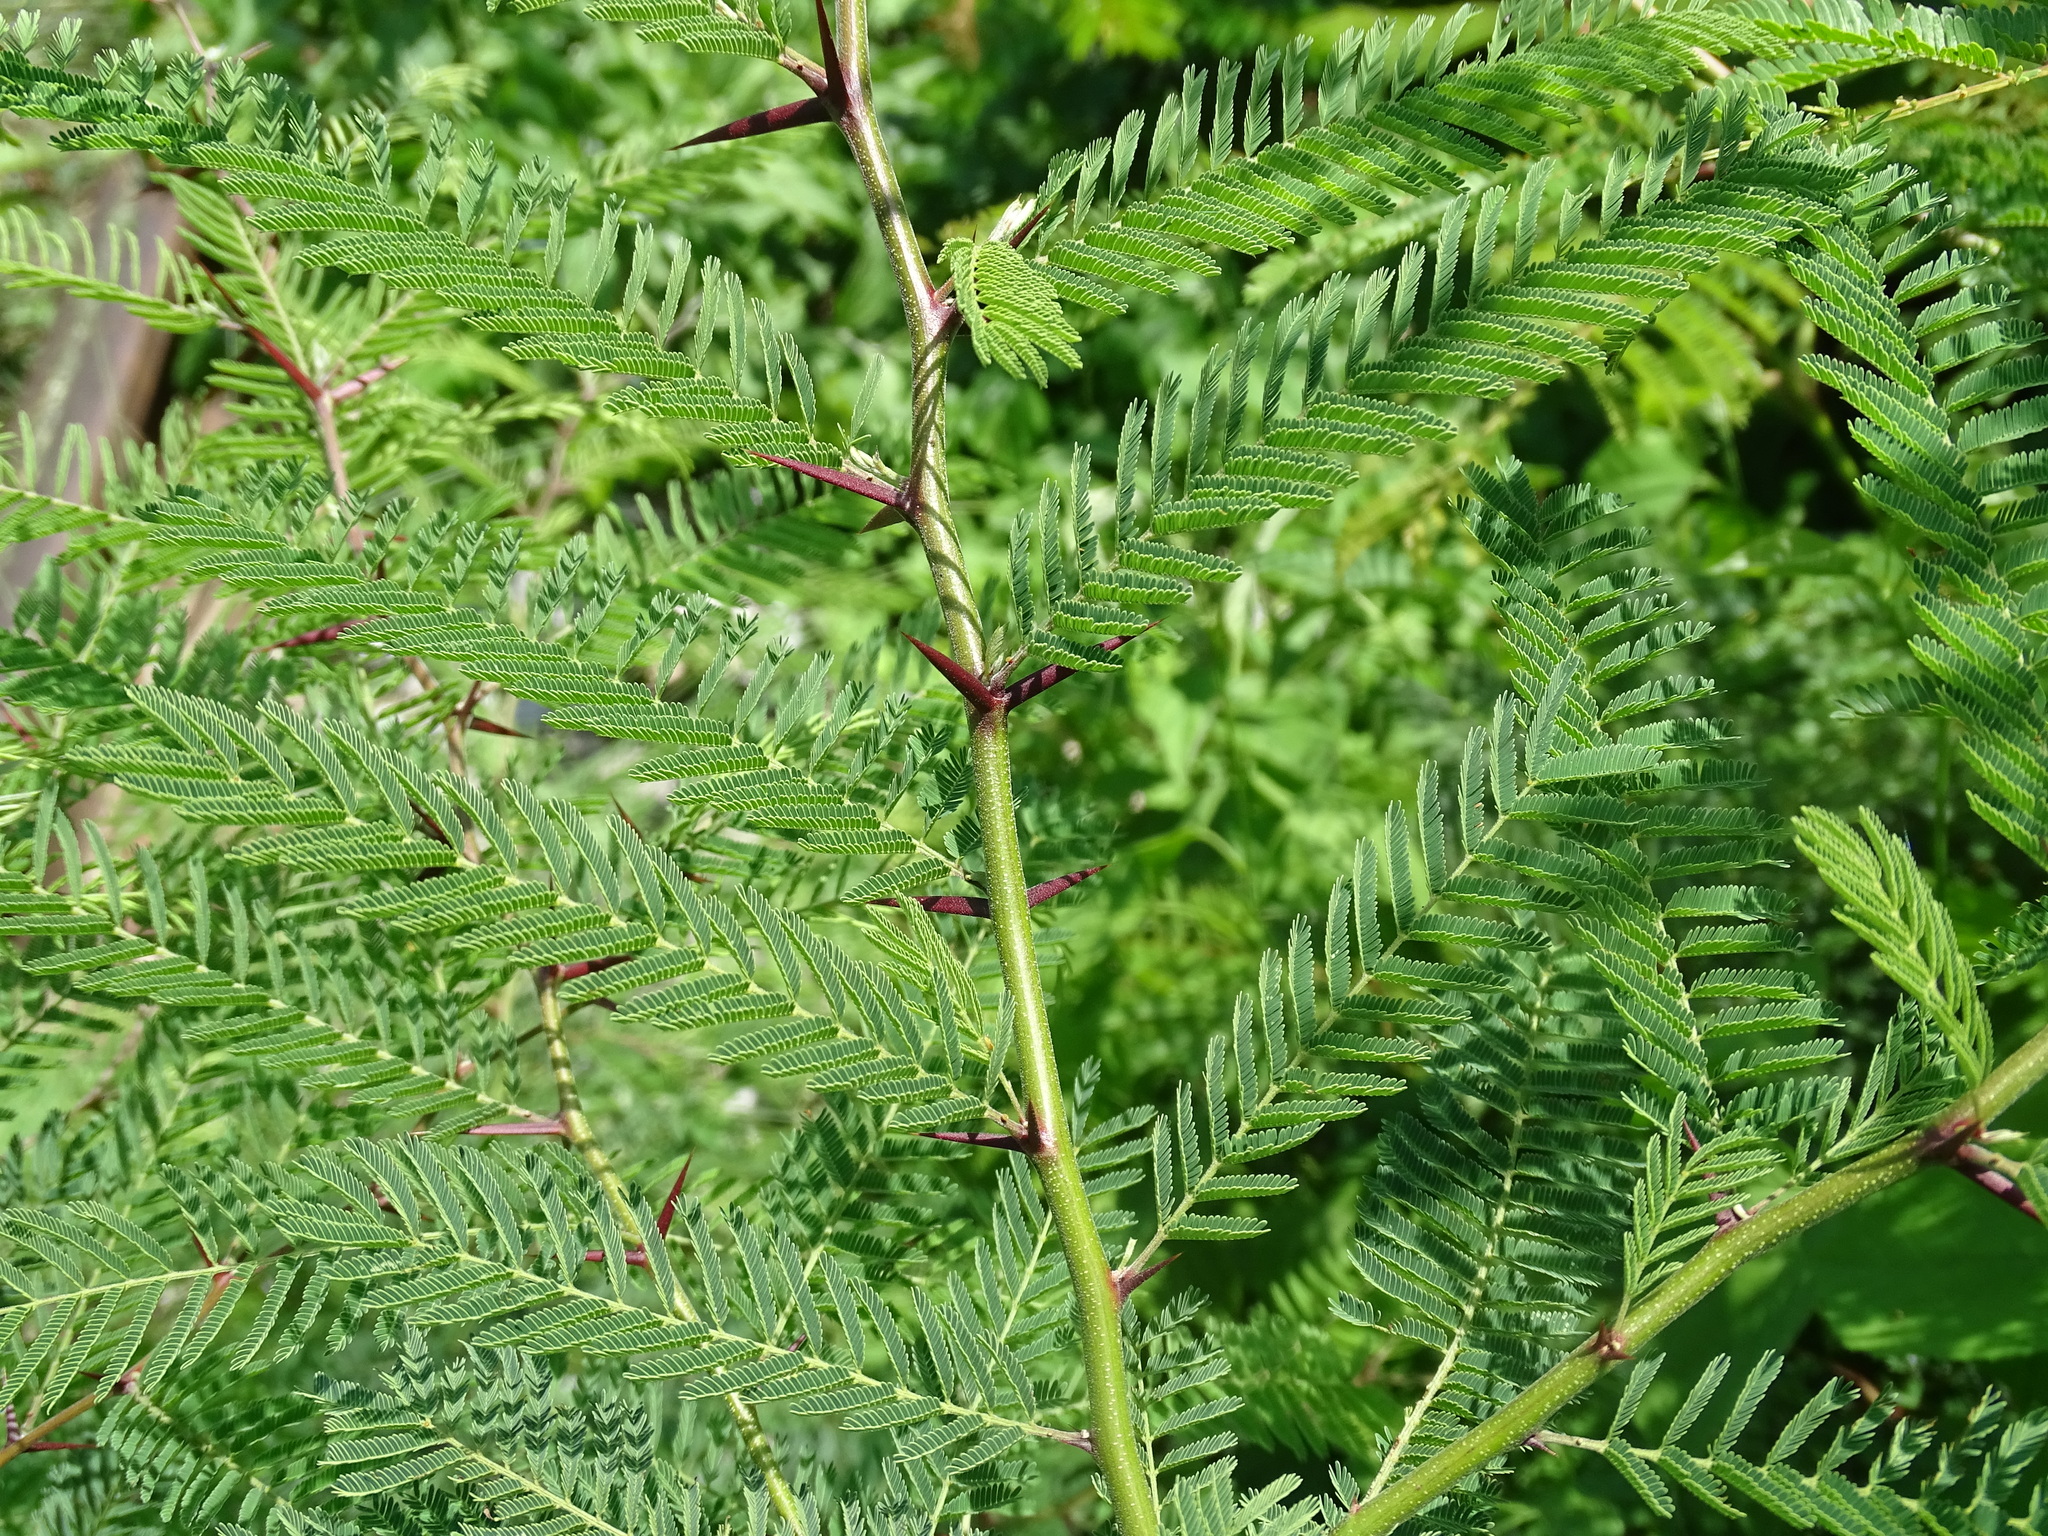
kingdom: Plantae
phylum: Tracheophyta
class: Magnoliopsida
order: Fabales
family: Fabaceae
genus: Vachellia
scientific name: Vachellia campechiana
